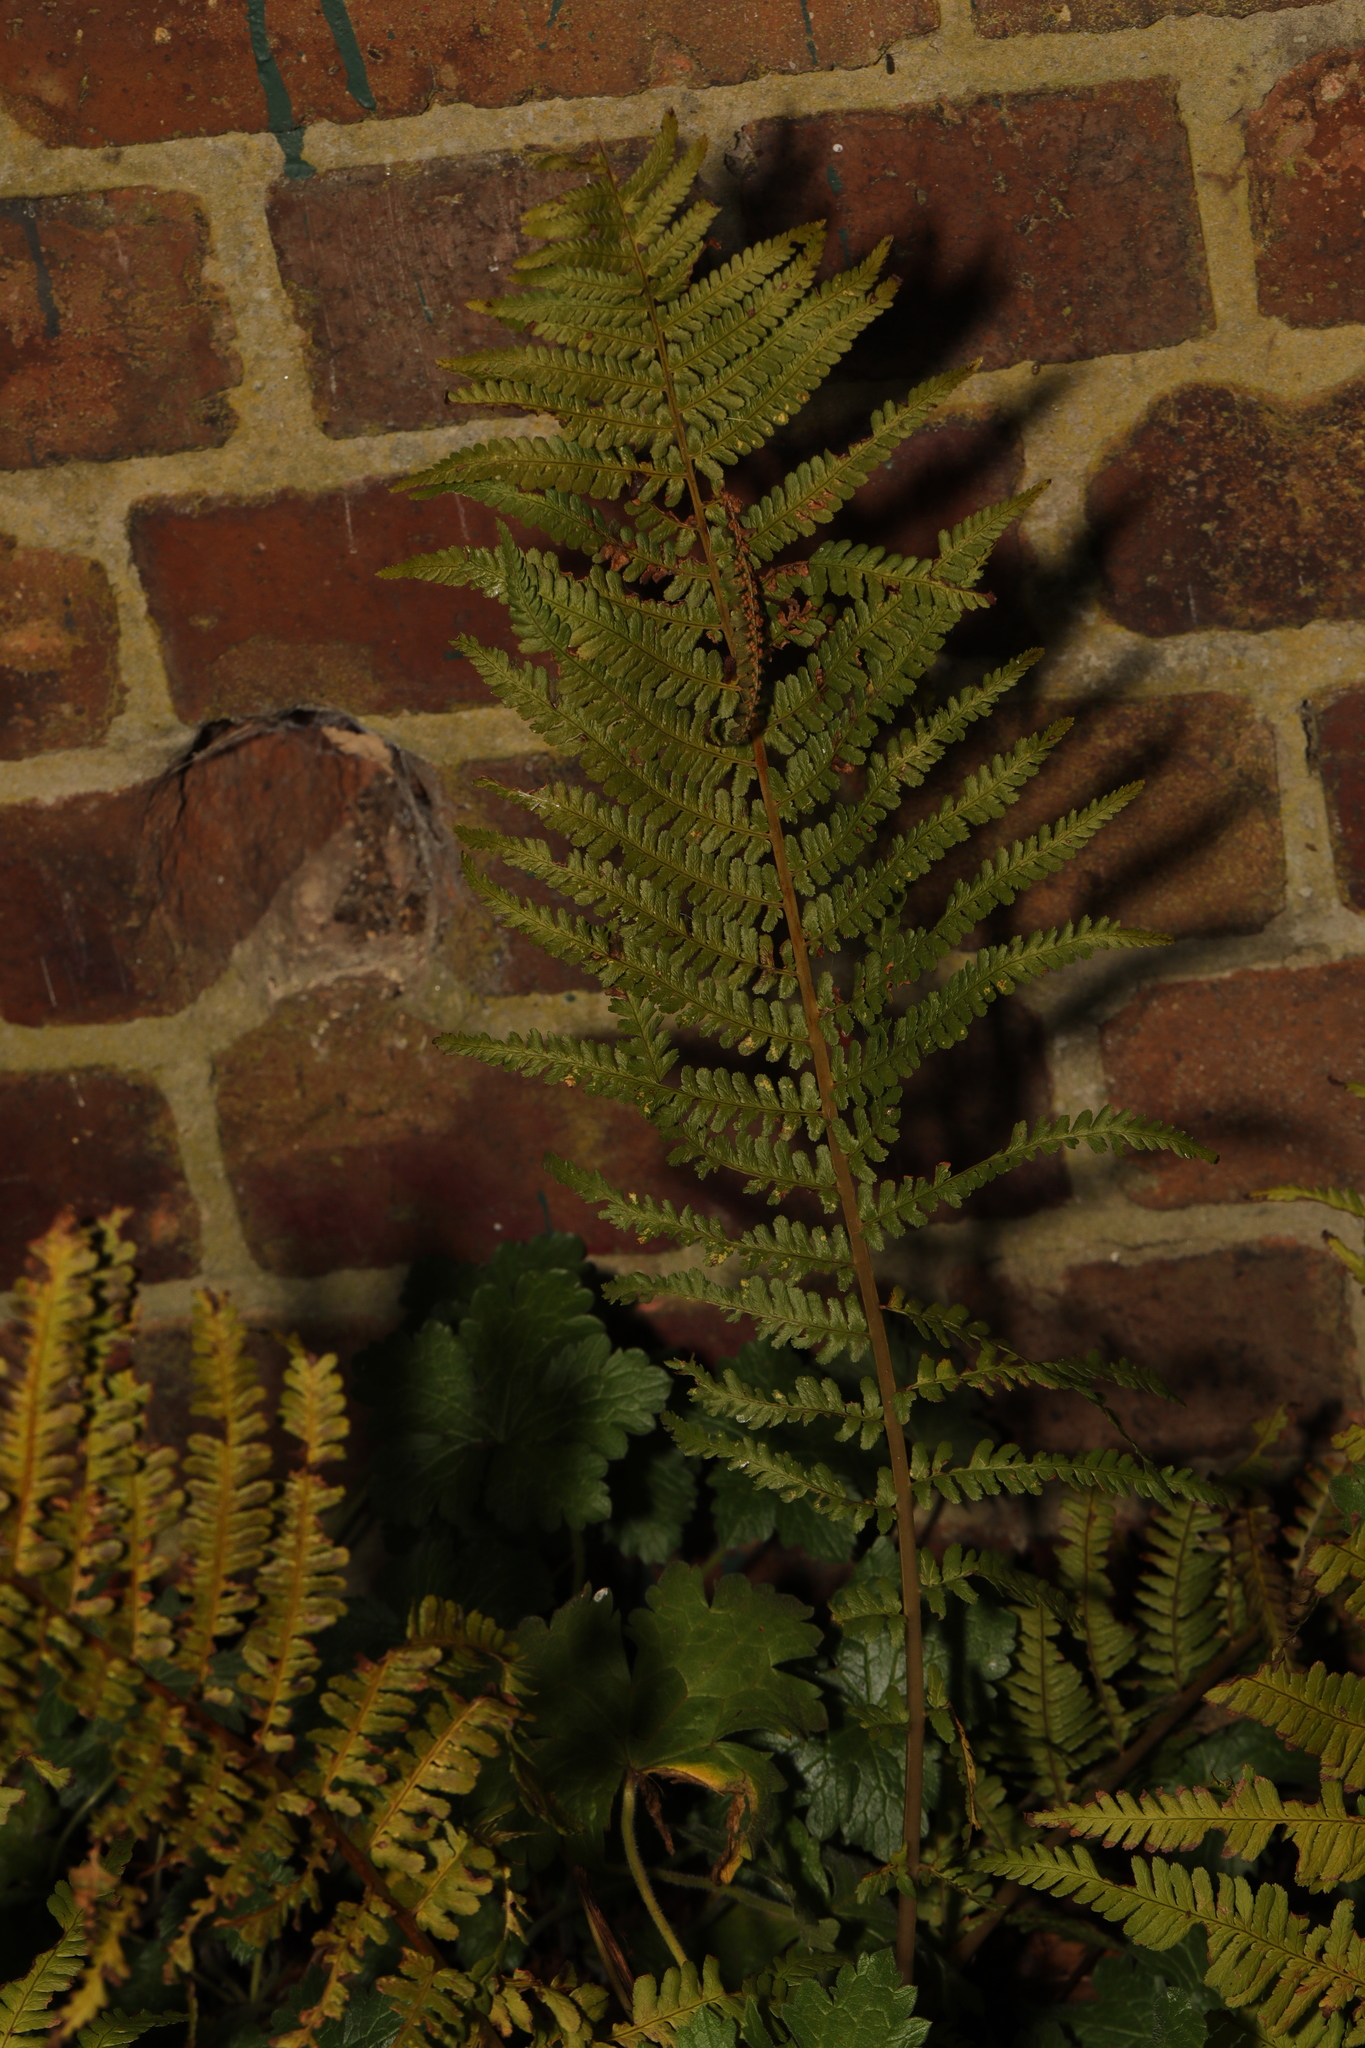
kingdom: Plantae
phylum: Tracheophyta
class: Polypodiopsida
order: Polypodiales
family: Dryopteridaceae
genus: Dryopteris
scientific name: Dryopteris filix-mas
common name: Male fern
